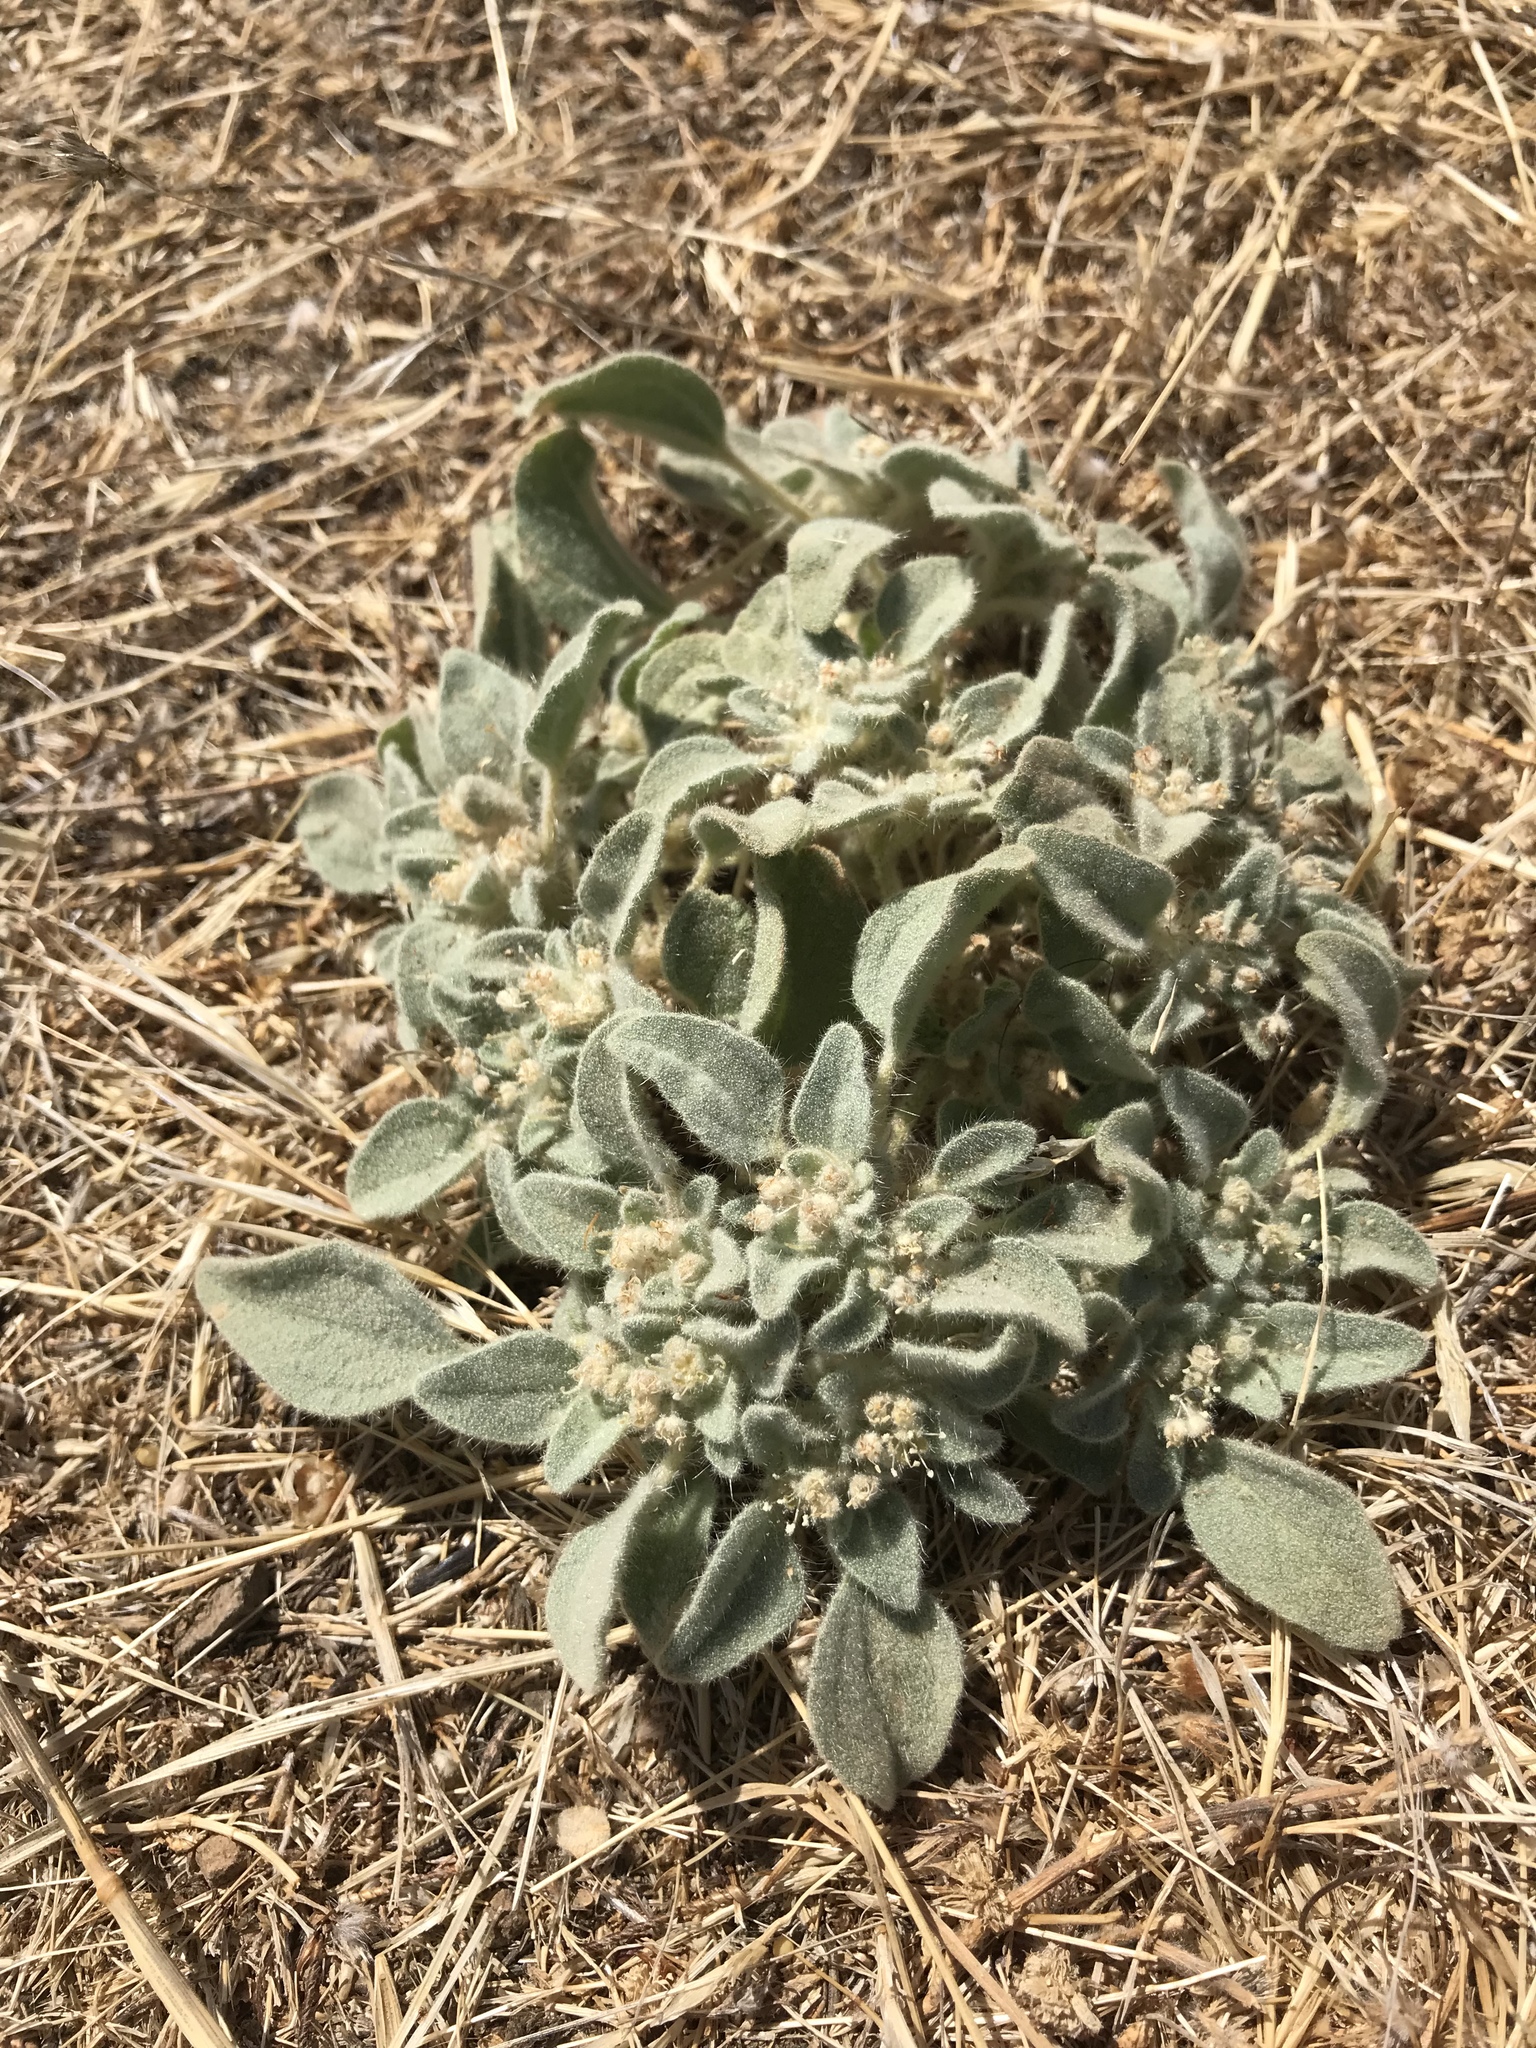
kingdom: Plantae
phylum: Tracheophyta
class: Magnoliopsida
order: Malpighiales
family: Euphorbiaceae
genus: Croton
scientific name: Croton setiger
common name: Dove weed
